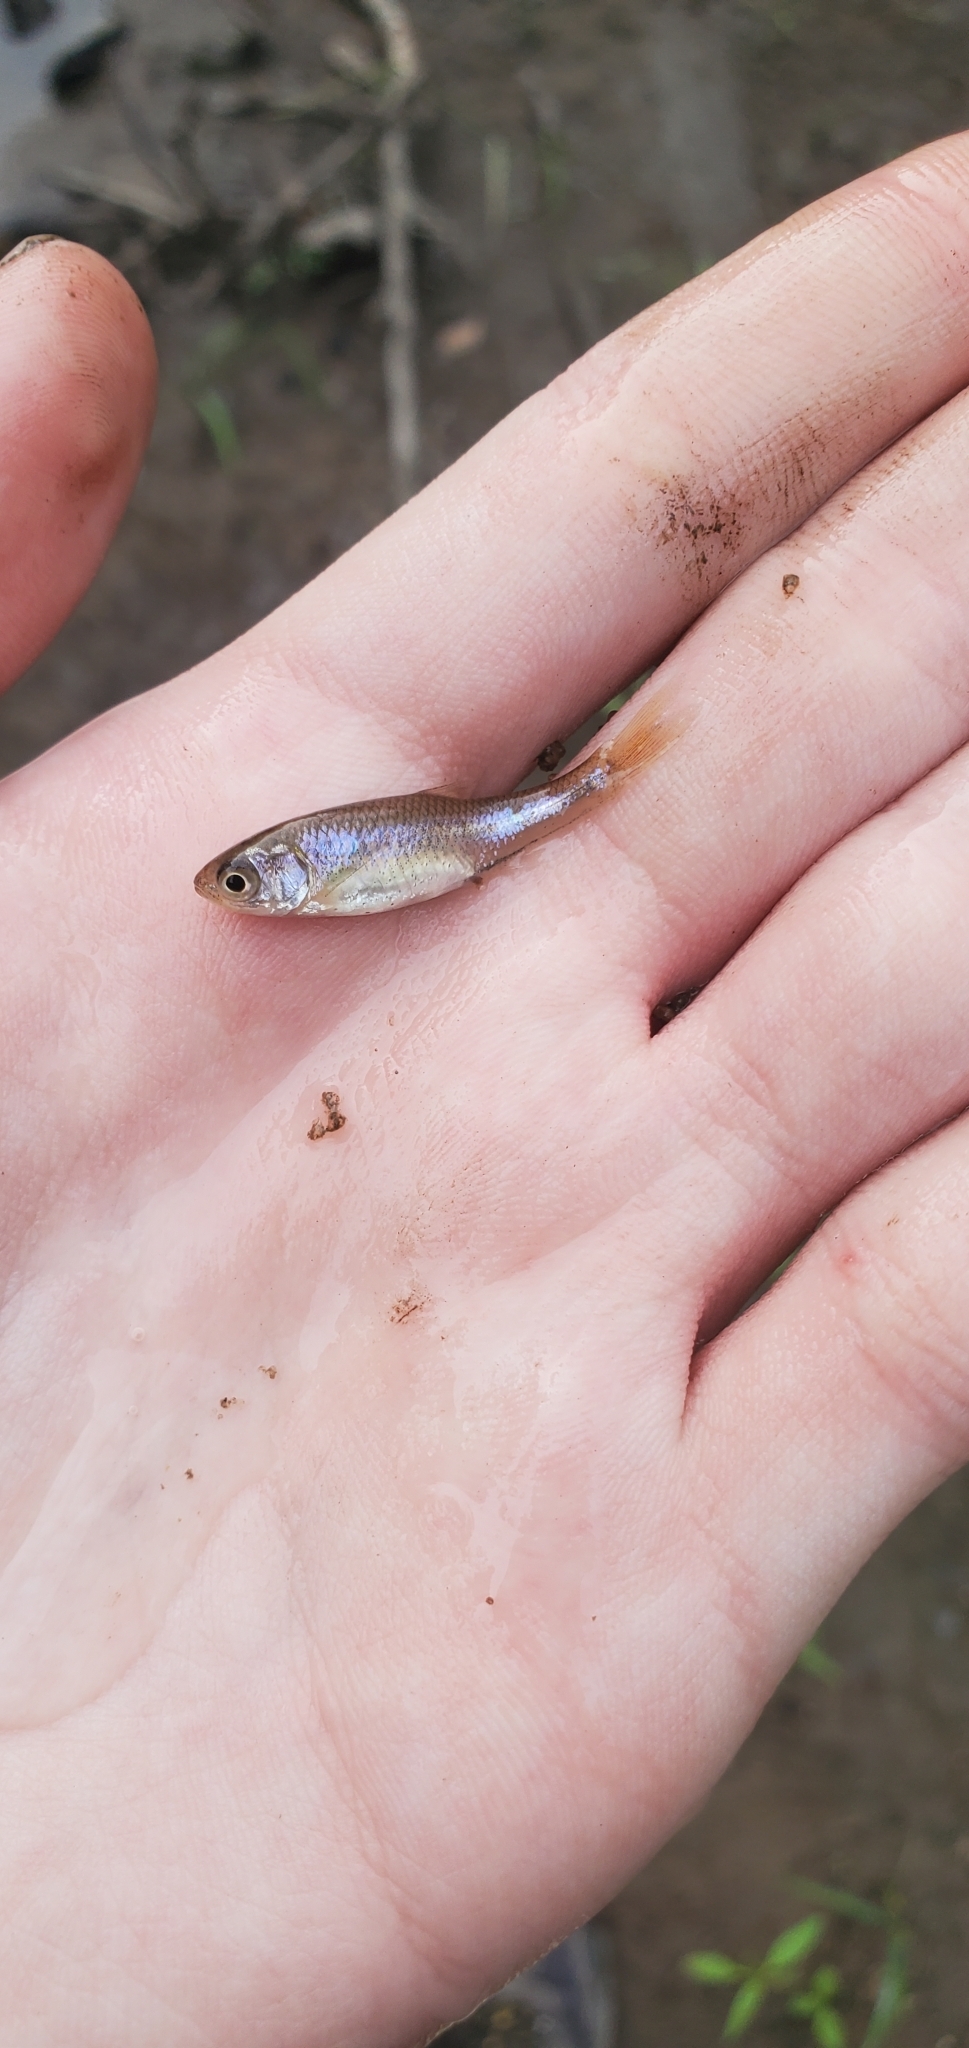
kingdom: Animalia
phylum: Chordata
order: Cypriniformes
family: Cyprinidae
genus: Cyprinella
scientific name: Cyprinella lutrensis
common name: Red shiner
